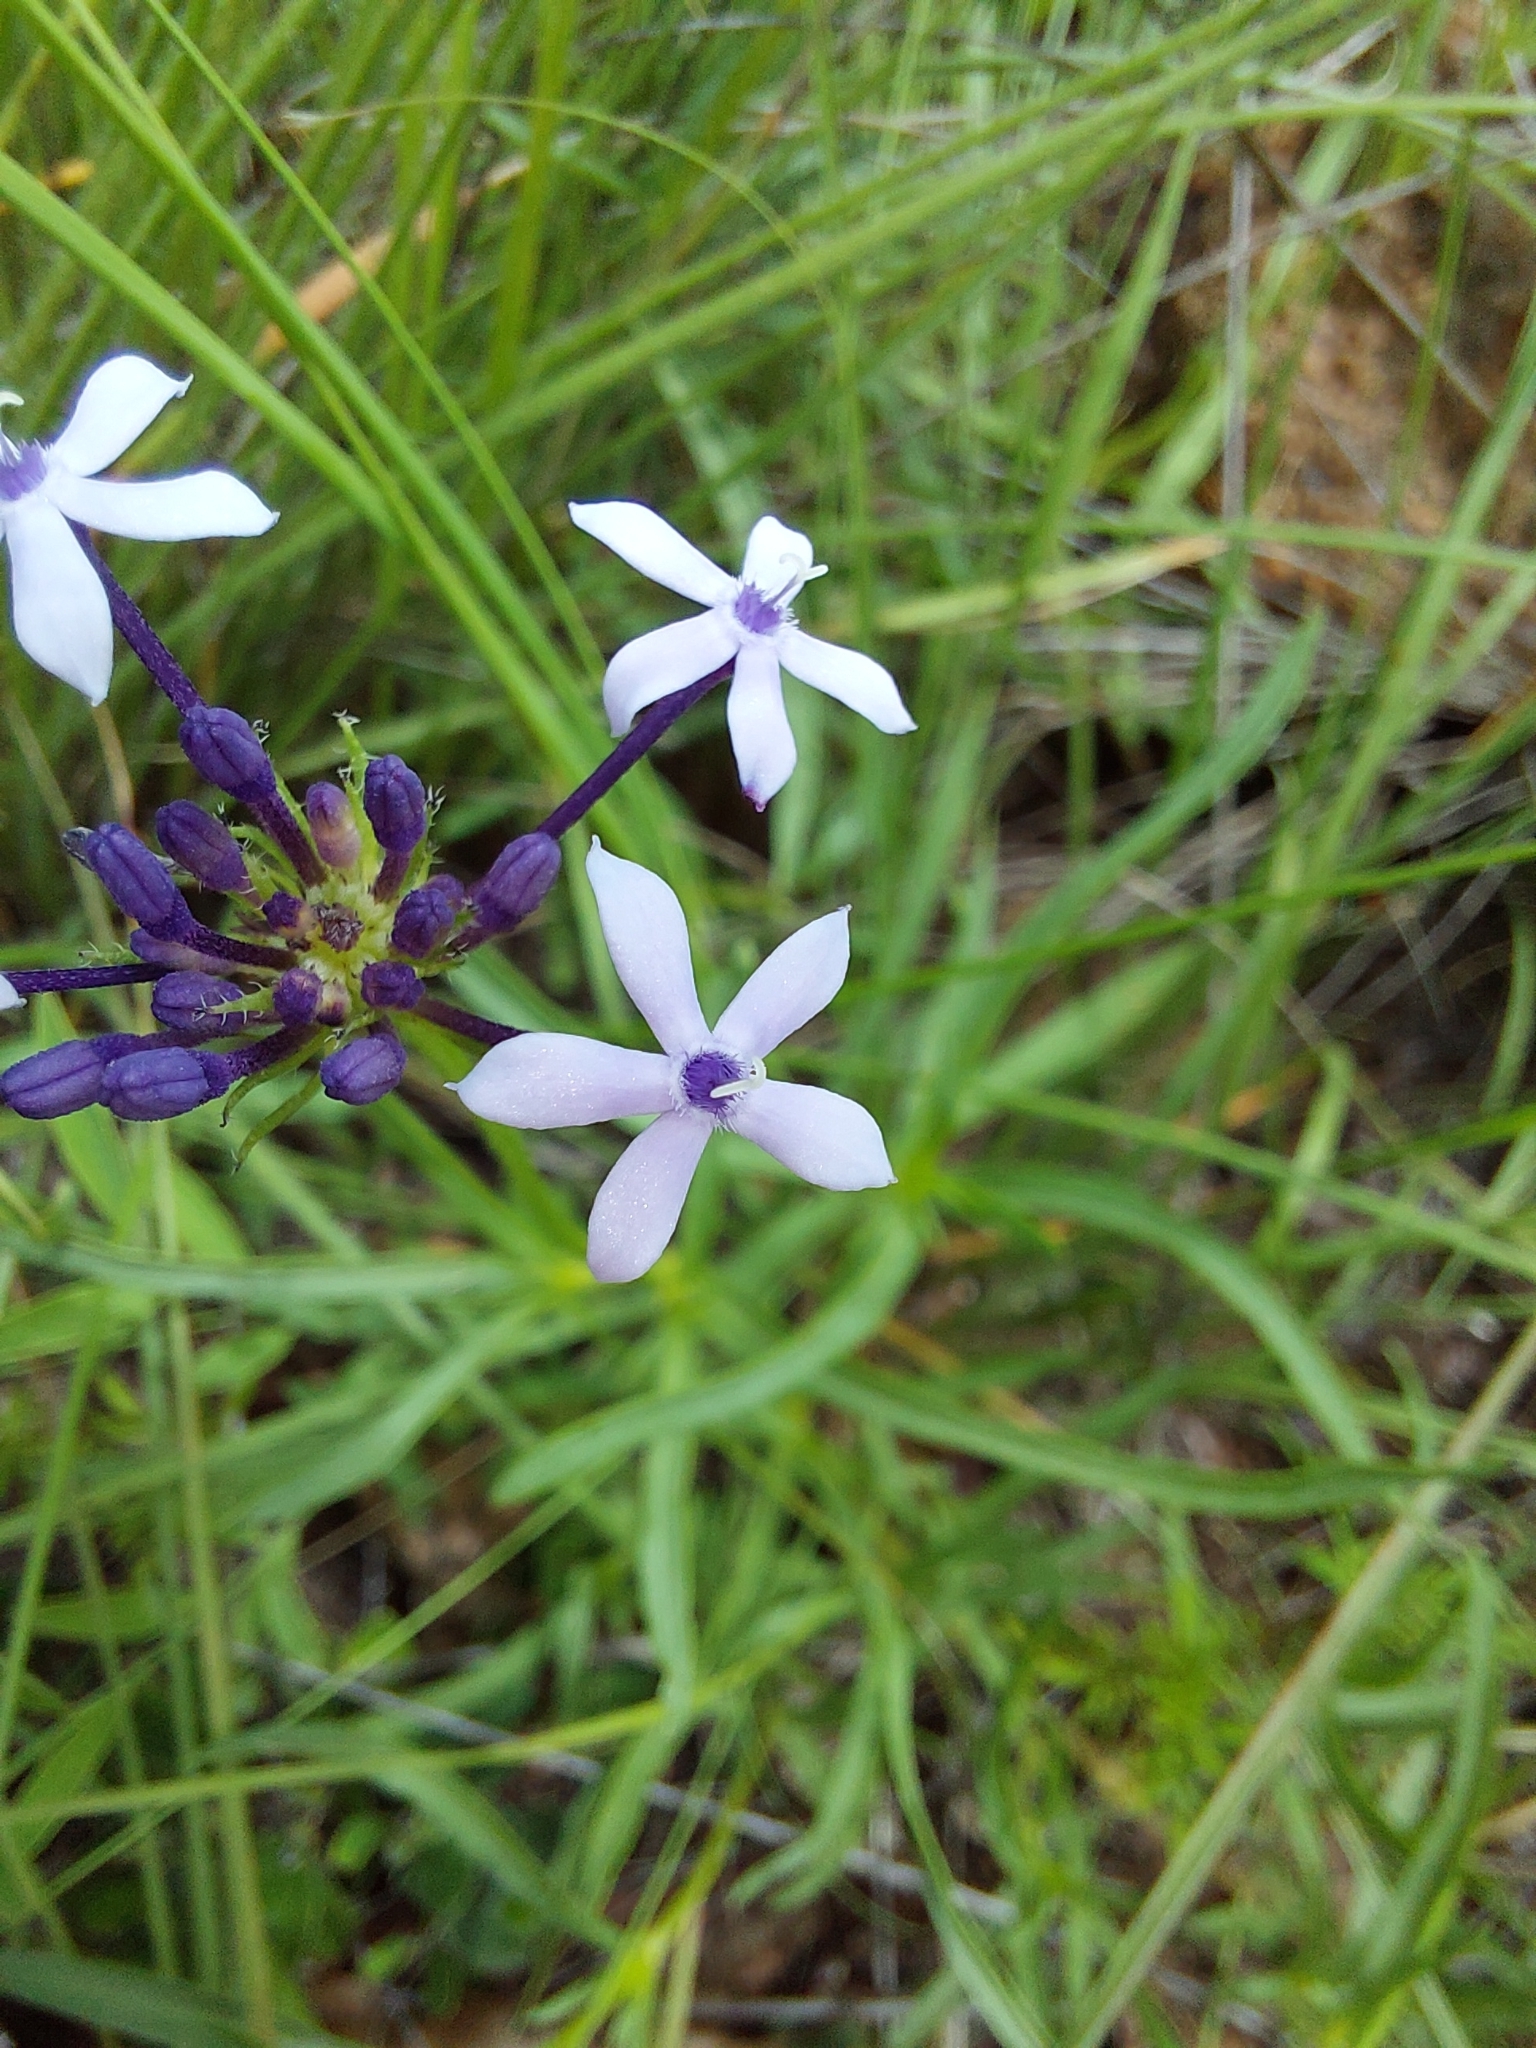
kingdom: Plantae
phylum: Tracheophyta
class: Magnoliopsida
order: Gentianales
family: Rubiaceae
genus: Pentanisia
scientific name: Pentanisia angustifolia
